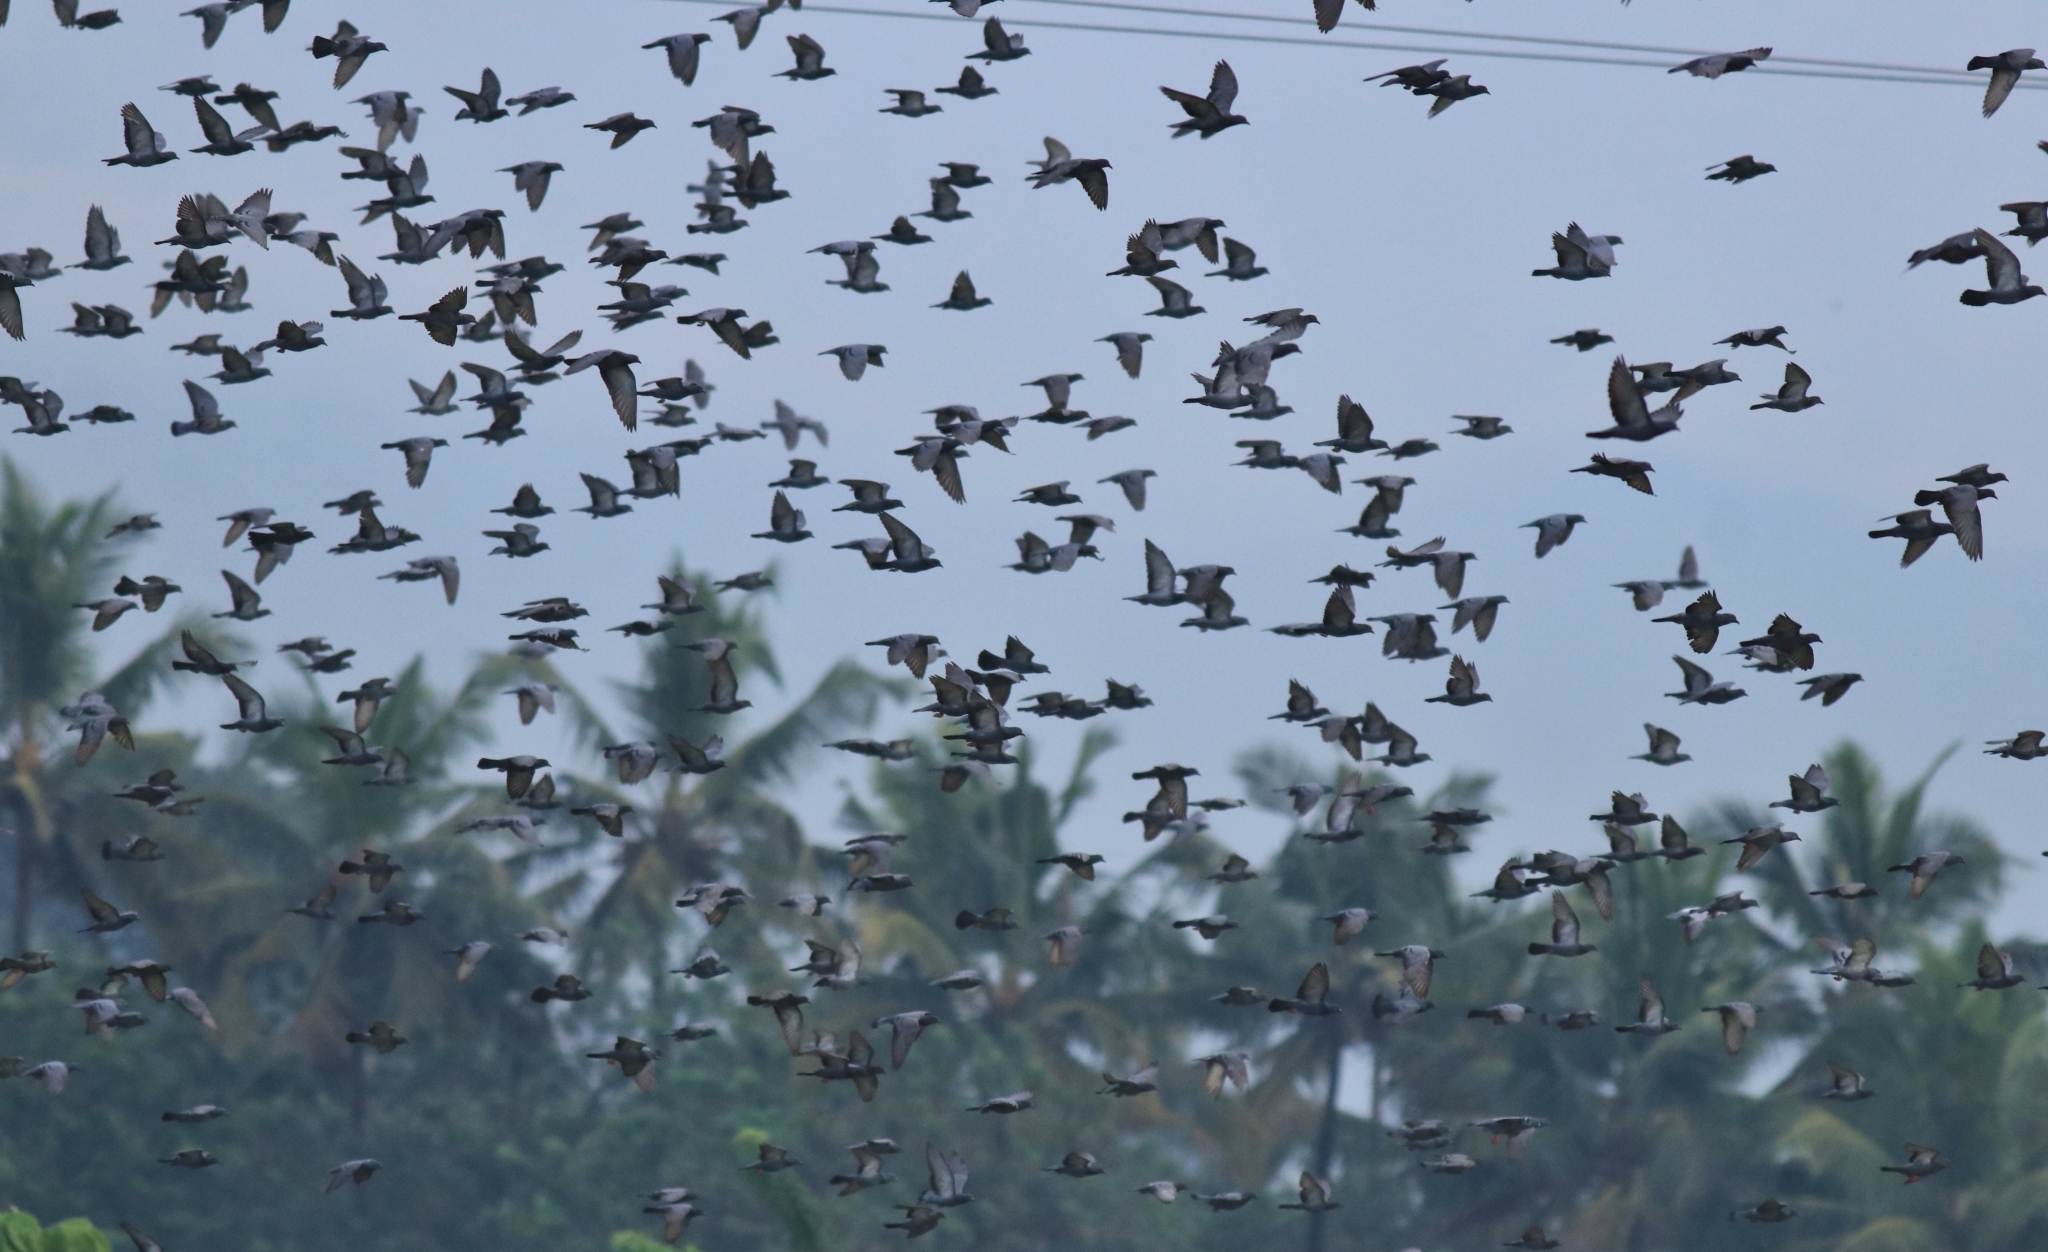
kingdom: Animalia
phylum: Chordata
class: Aves
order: Columbiformes
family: Columbidae
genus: Columba
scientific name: Columba livia
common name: Rock pigeon
